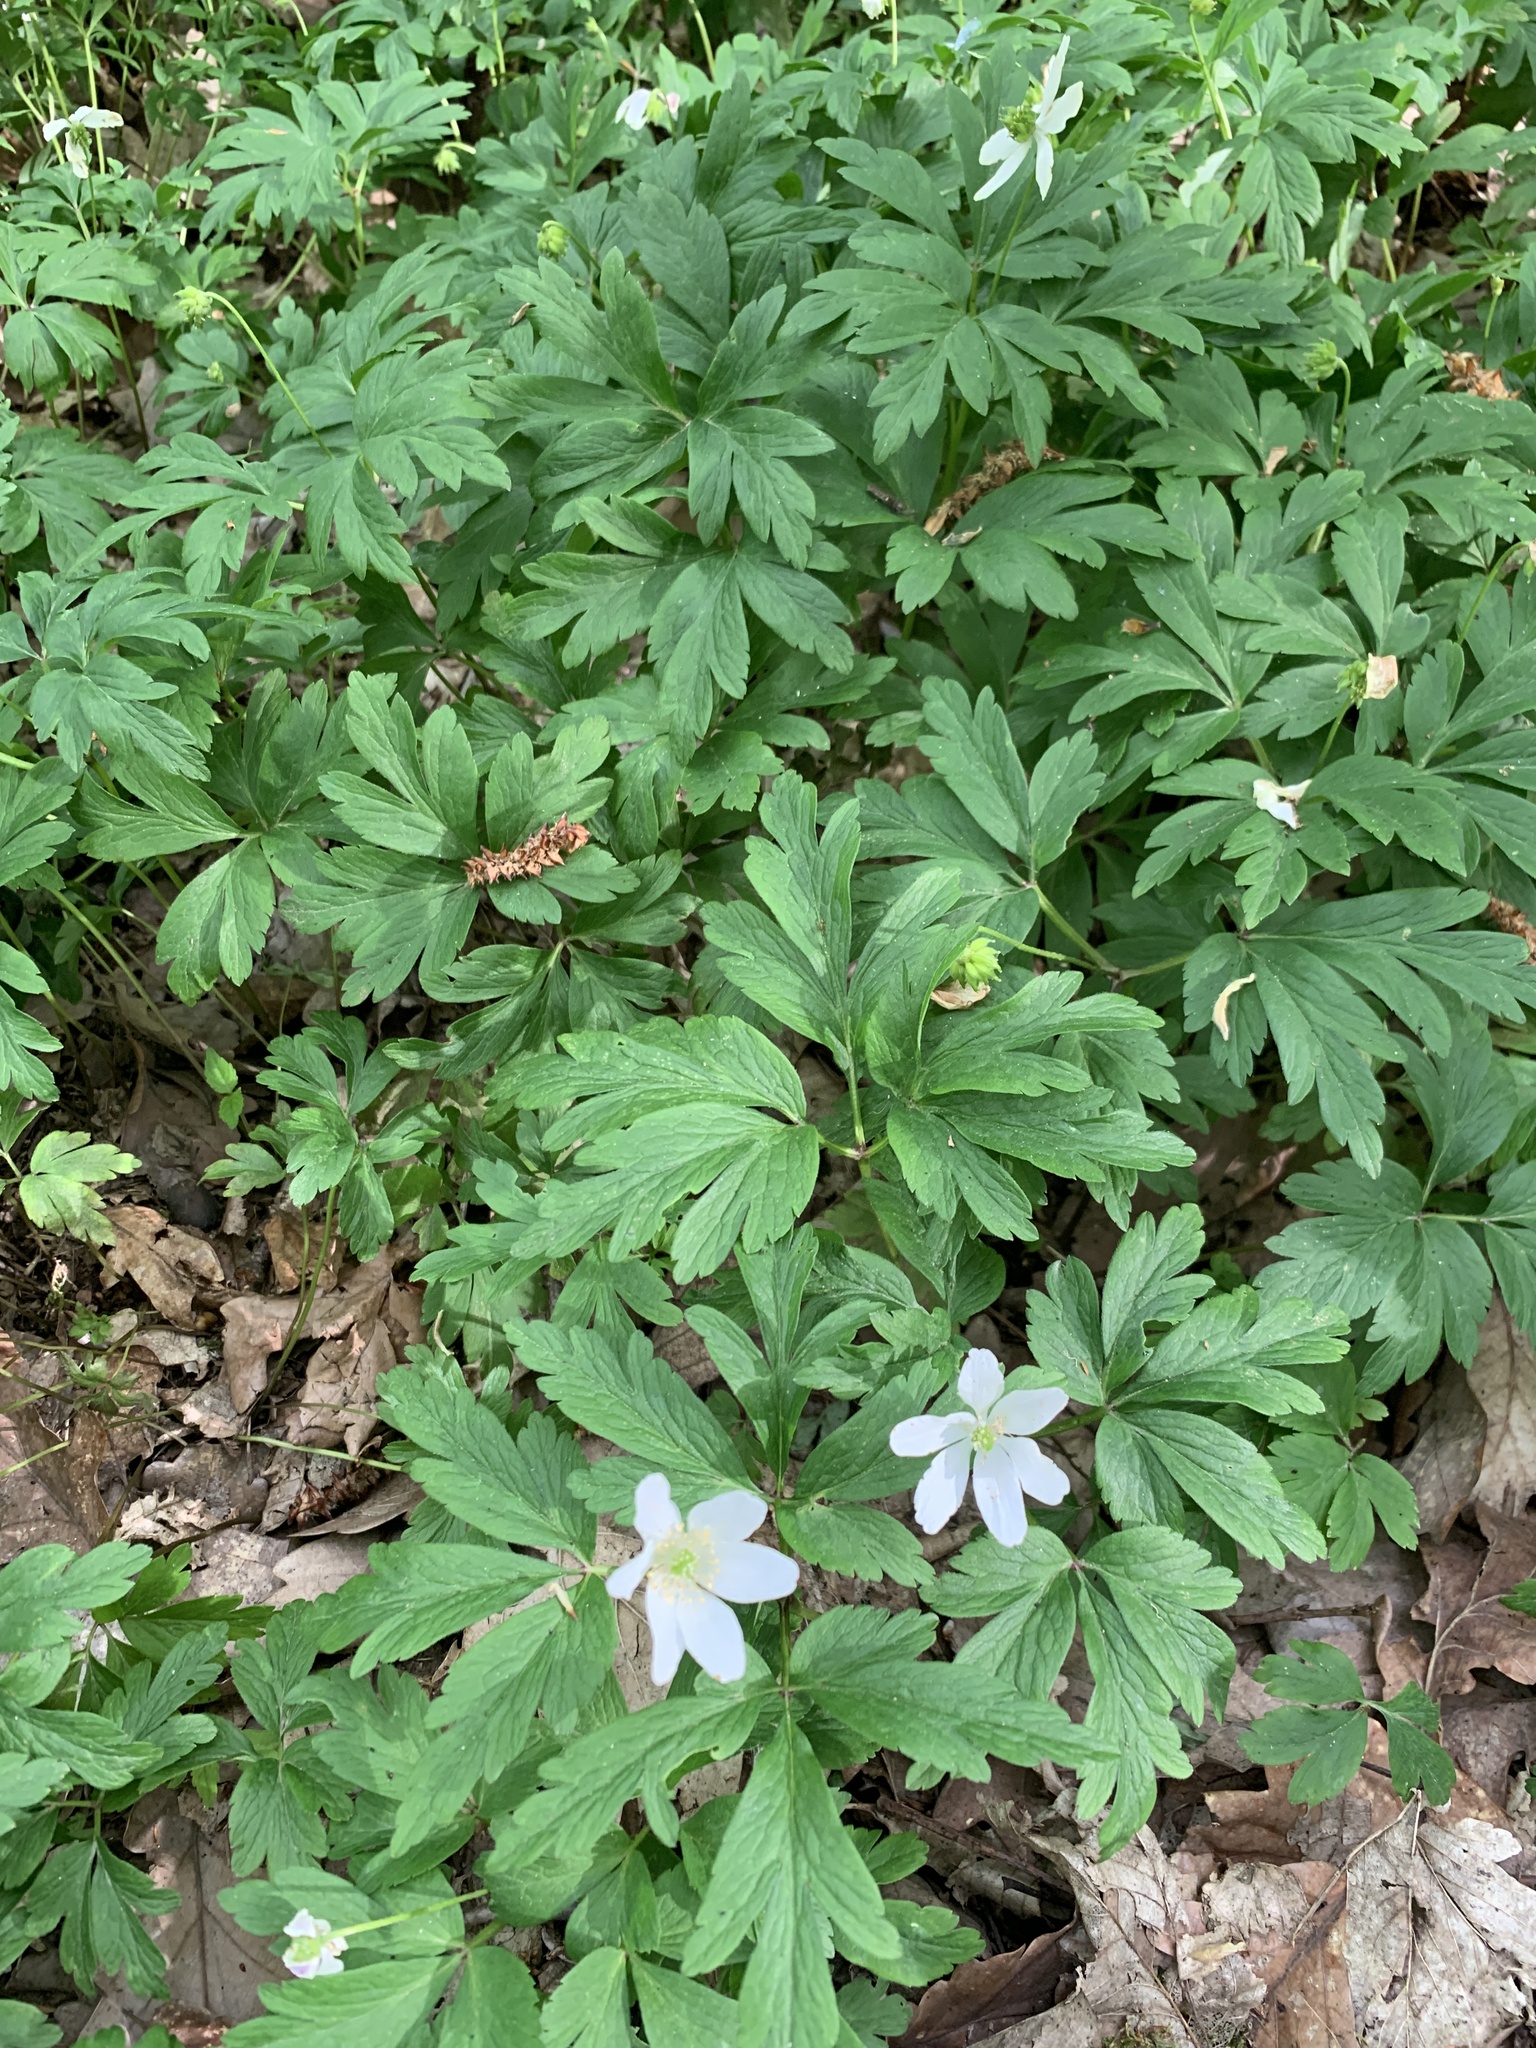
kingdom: Plantae
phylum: Tracheophyta
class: Magnoliopsida
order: Ranunculales
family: Ranunculaceae
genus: Anemone
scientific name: Anemone nemorosa
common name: Wood anemone
